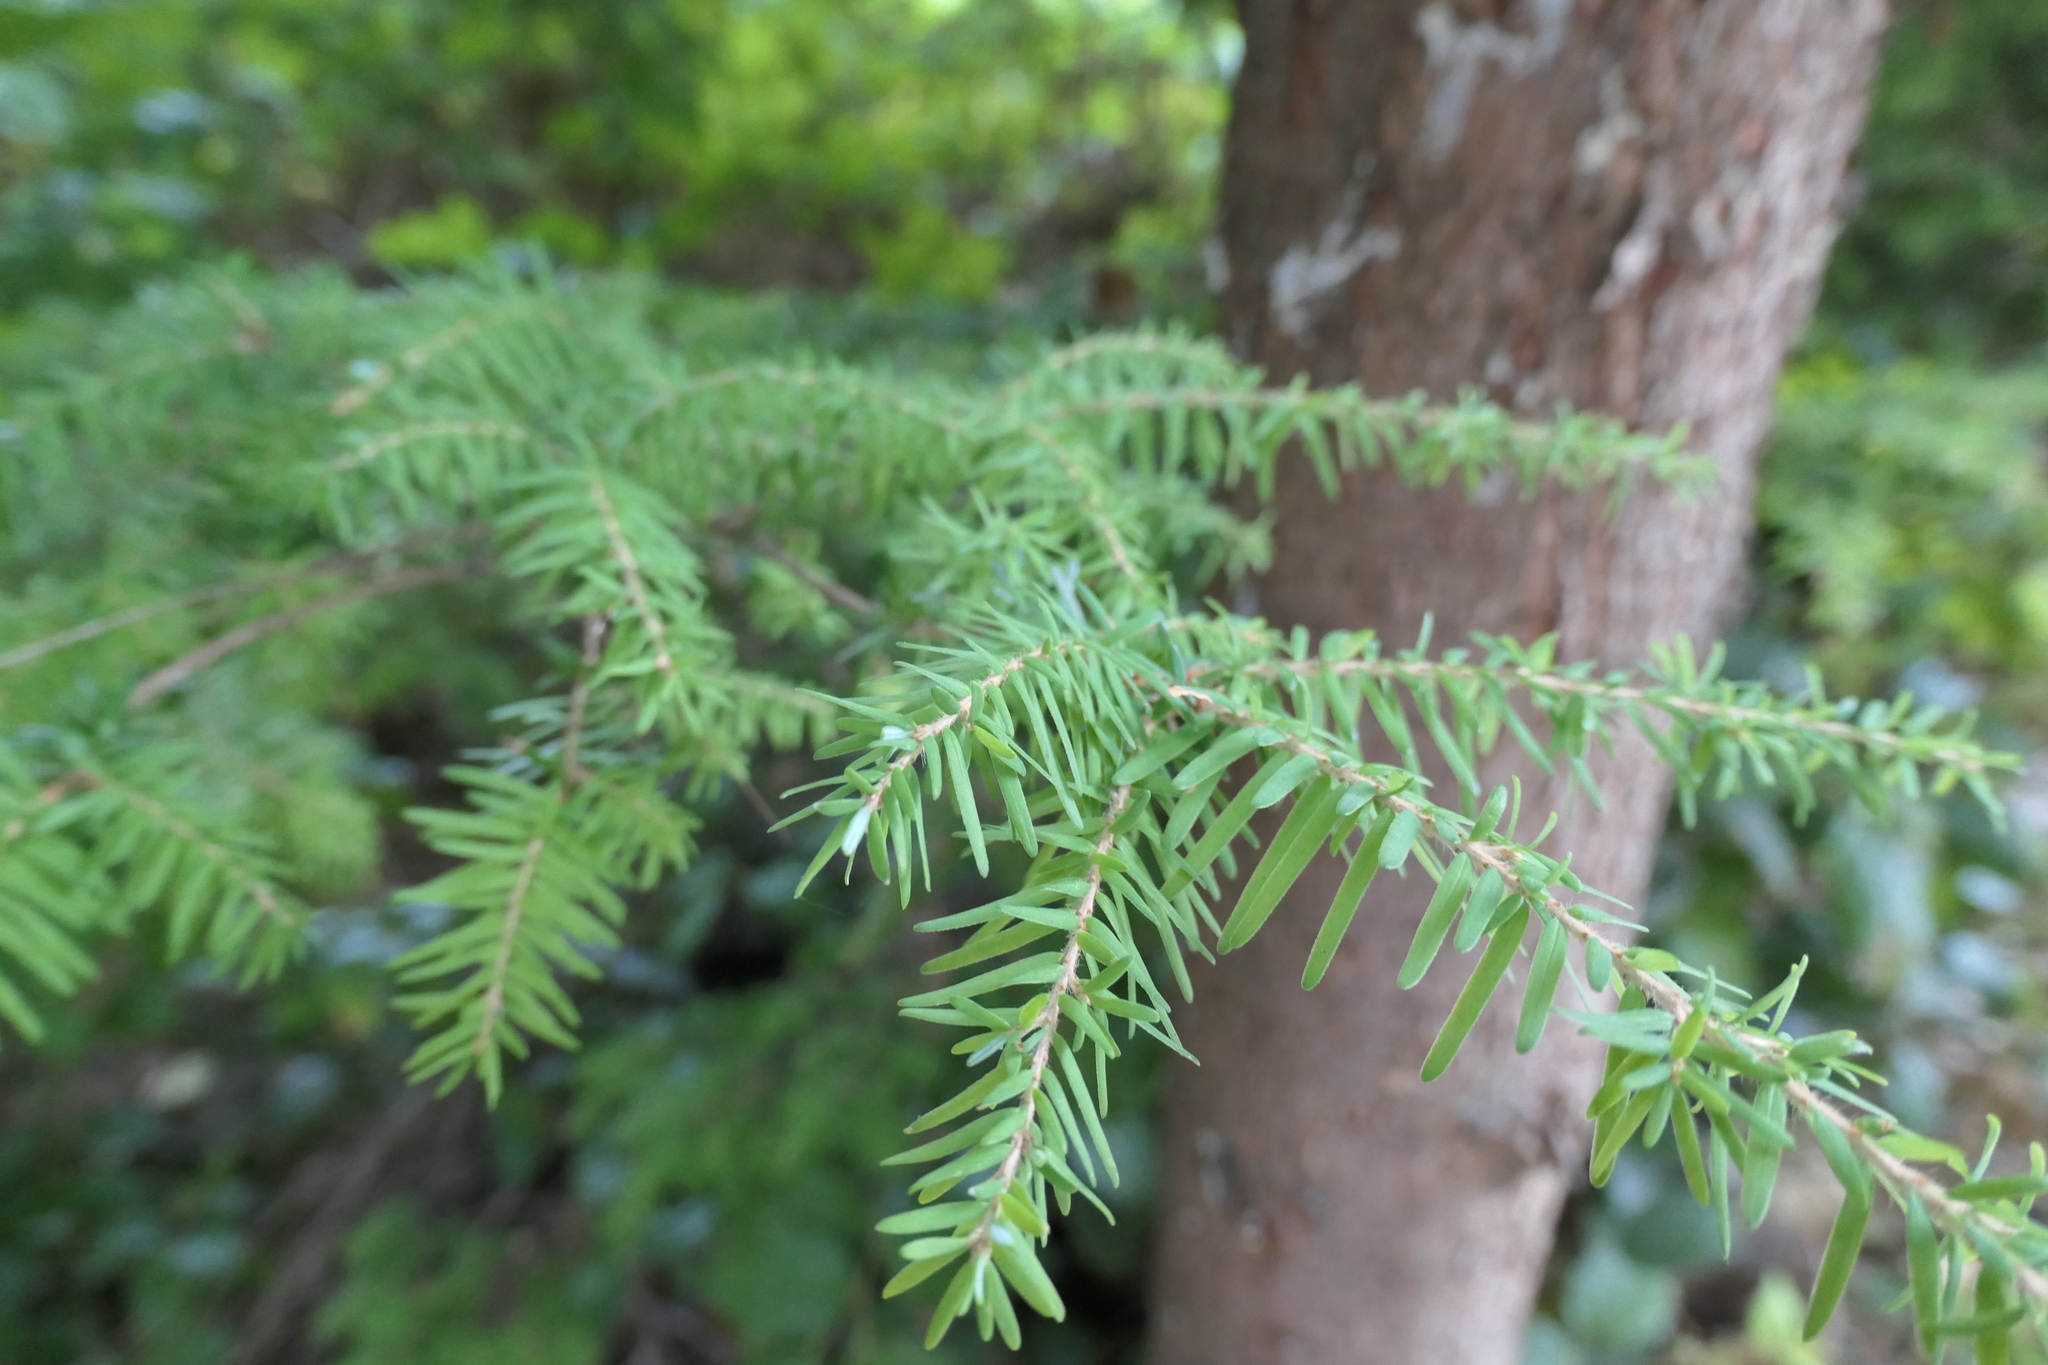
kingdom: Plantae
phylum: Tracheophyta
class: Pinopsida
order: Pinales
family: Pinaceae
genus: Tsuga
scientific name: Tsuga heterophylla
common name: Western hemlock
